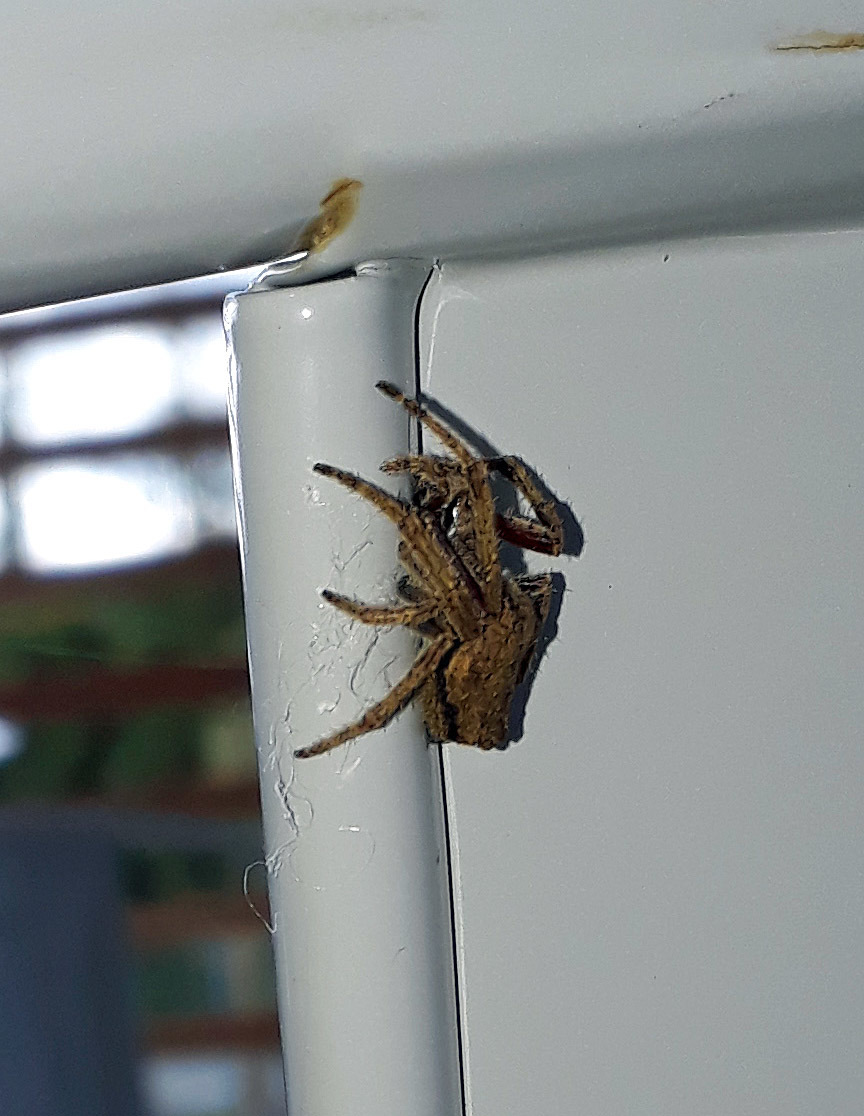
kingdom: Animalia
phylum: Arthropoda
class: Arachnida
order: Araneae
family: Araneidae
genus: Eriophora
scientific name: Eriophora pustulosa
